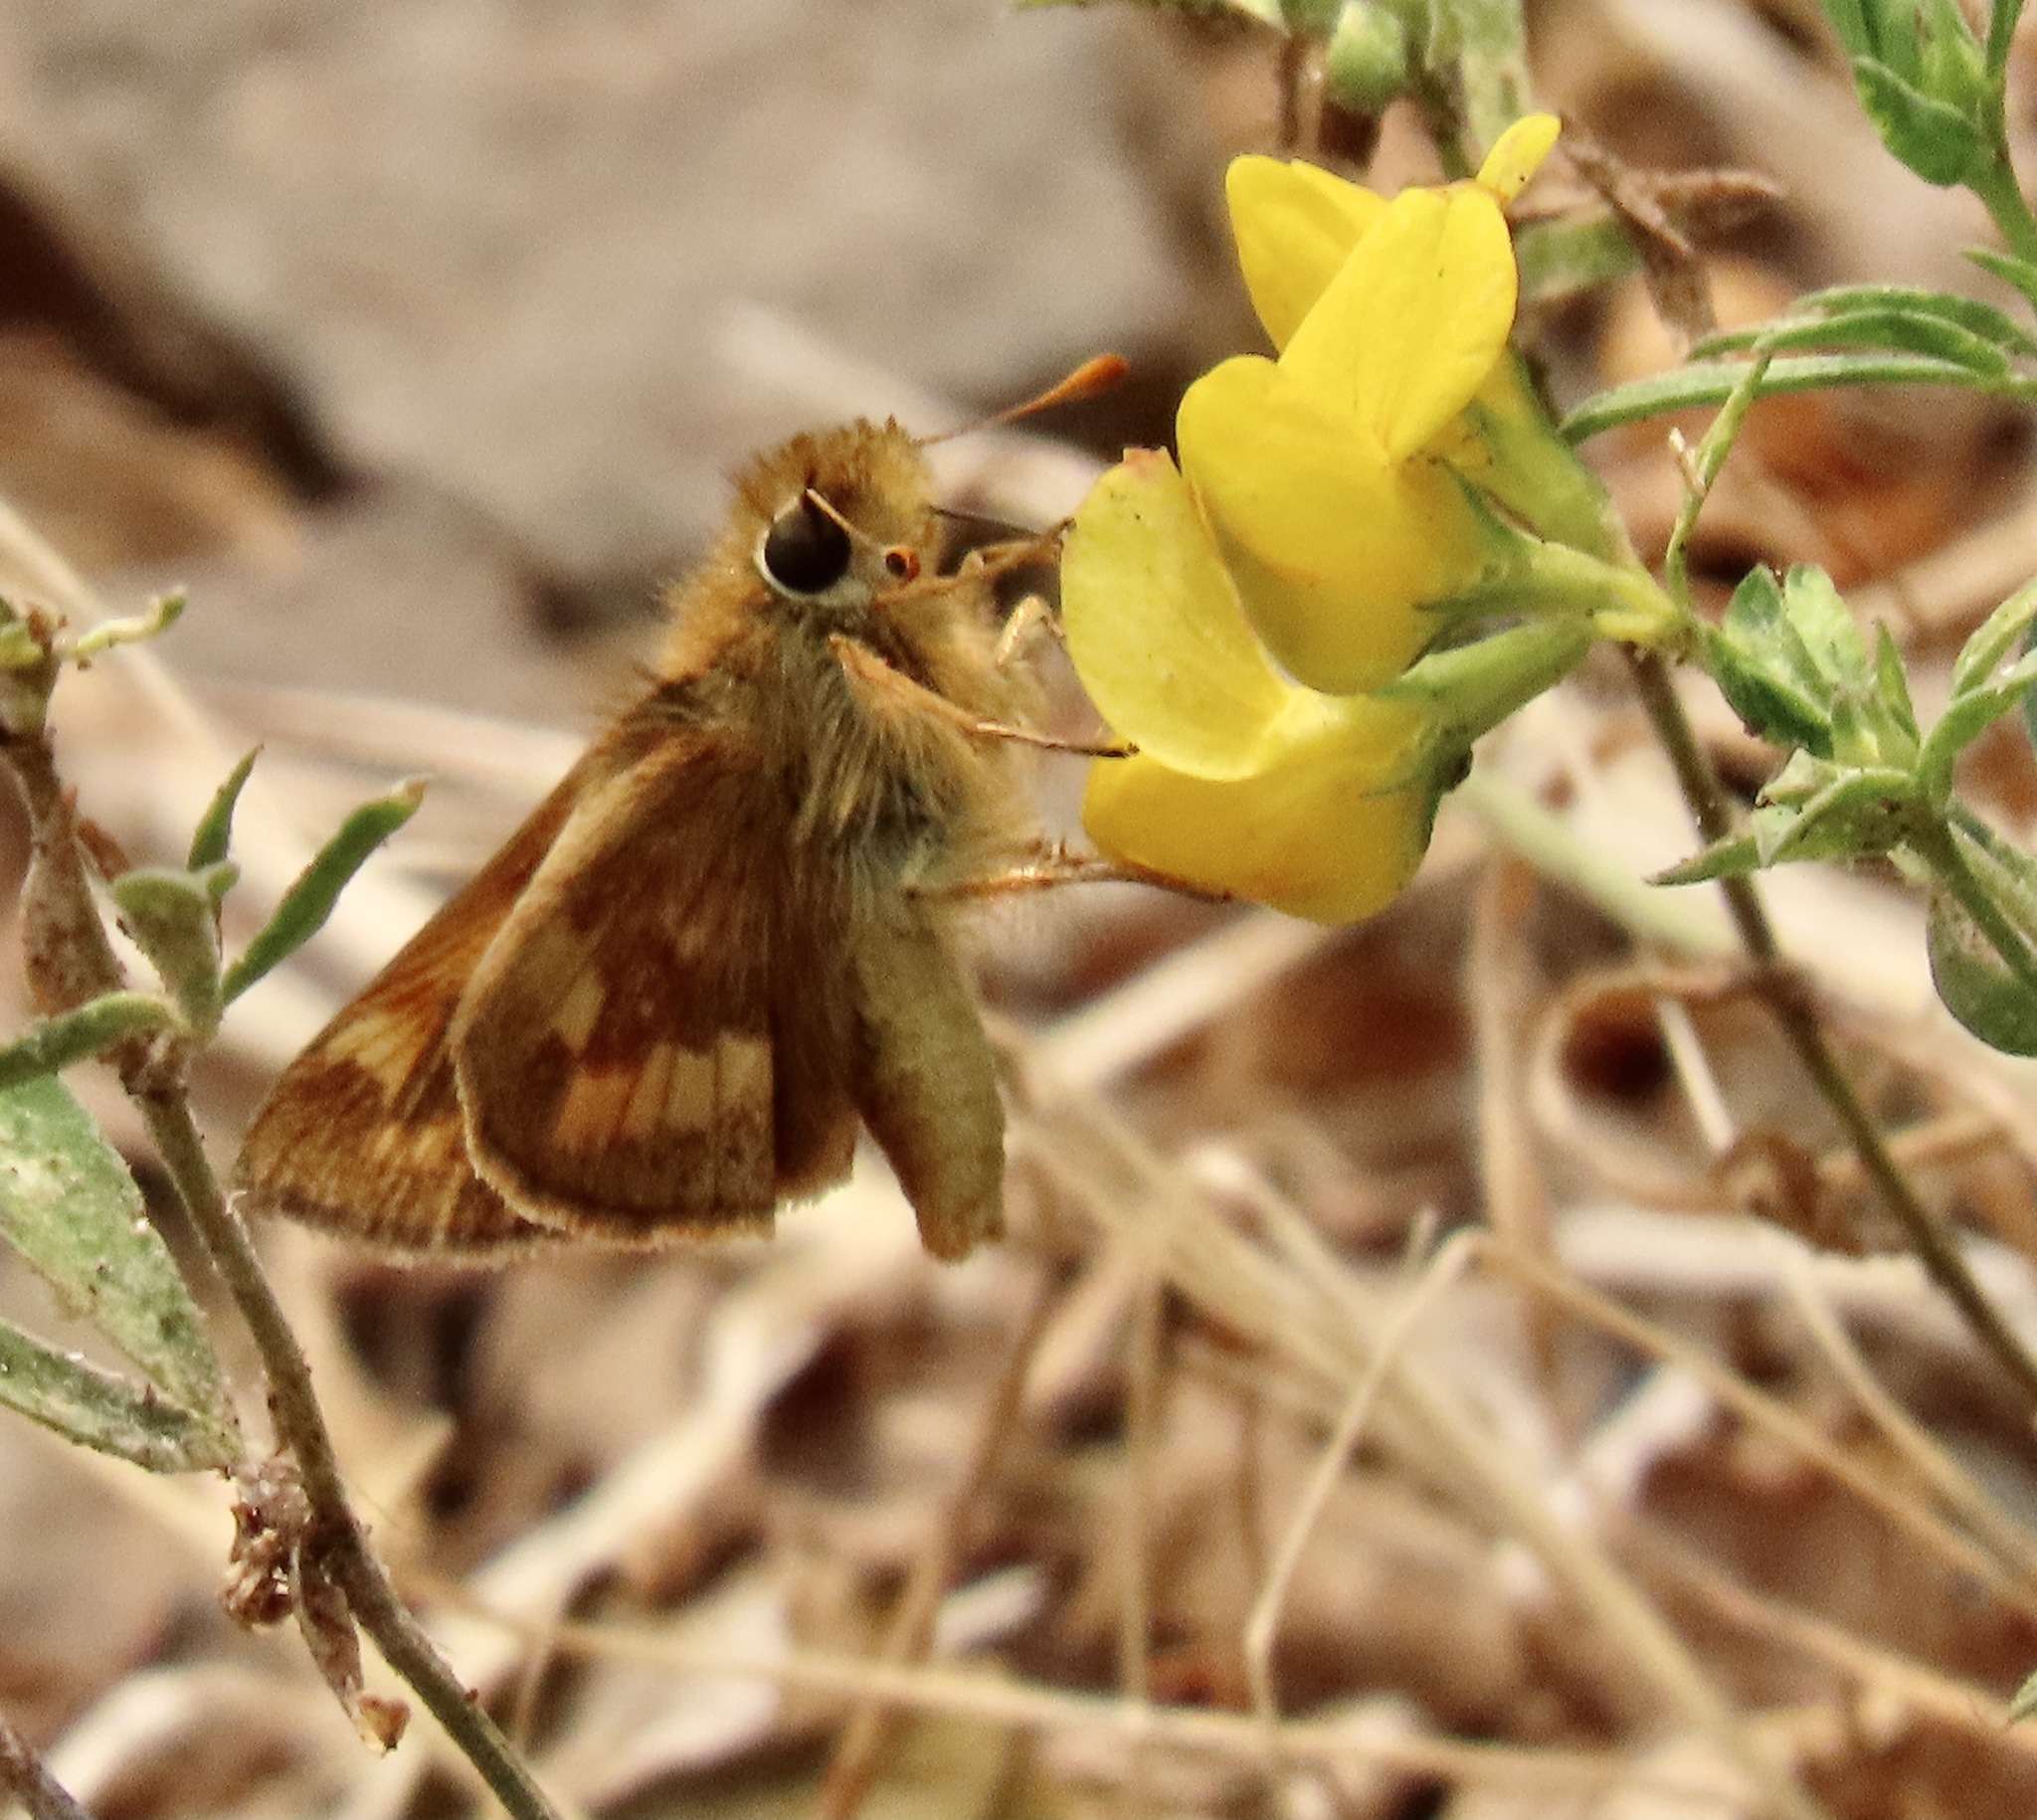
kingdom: Animalia
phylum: Arthropoda
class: Insecta
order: Lepidoptera
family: Hesperiidae
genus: Ochlodes
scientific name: Ochlodes sylvanoides
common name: Woodland skipper
